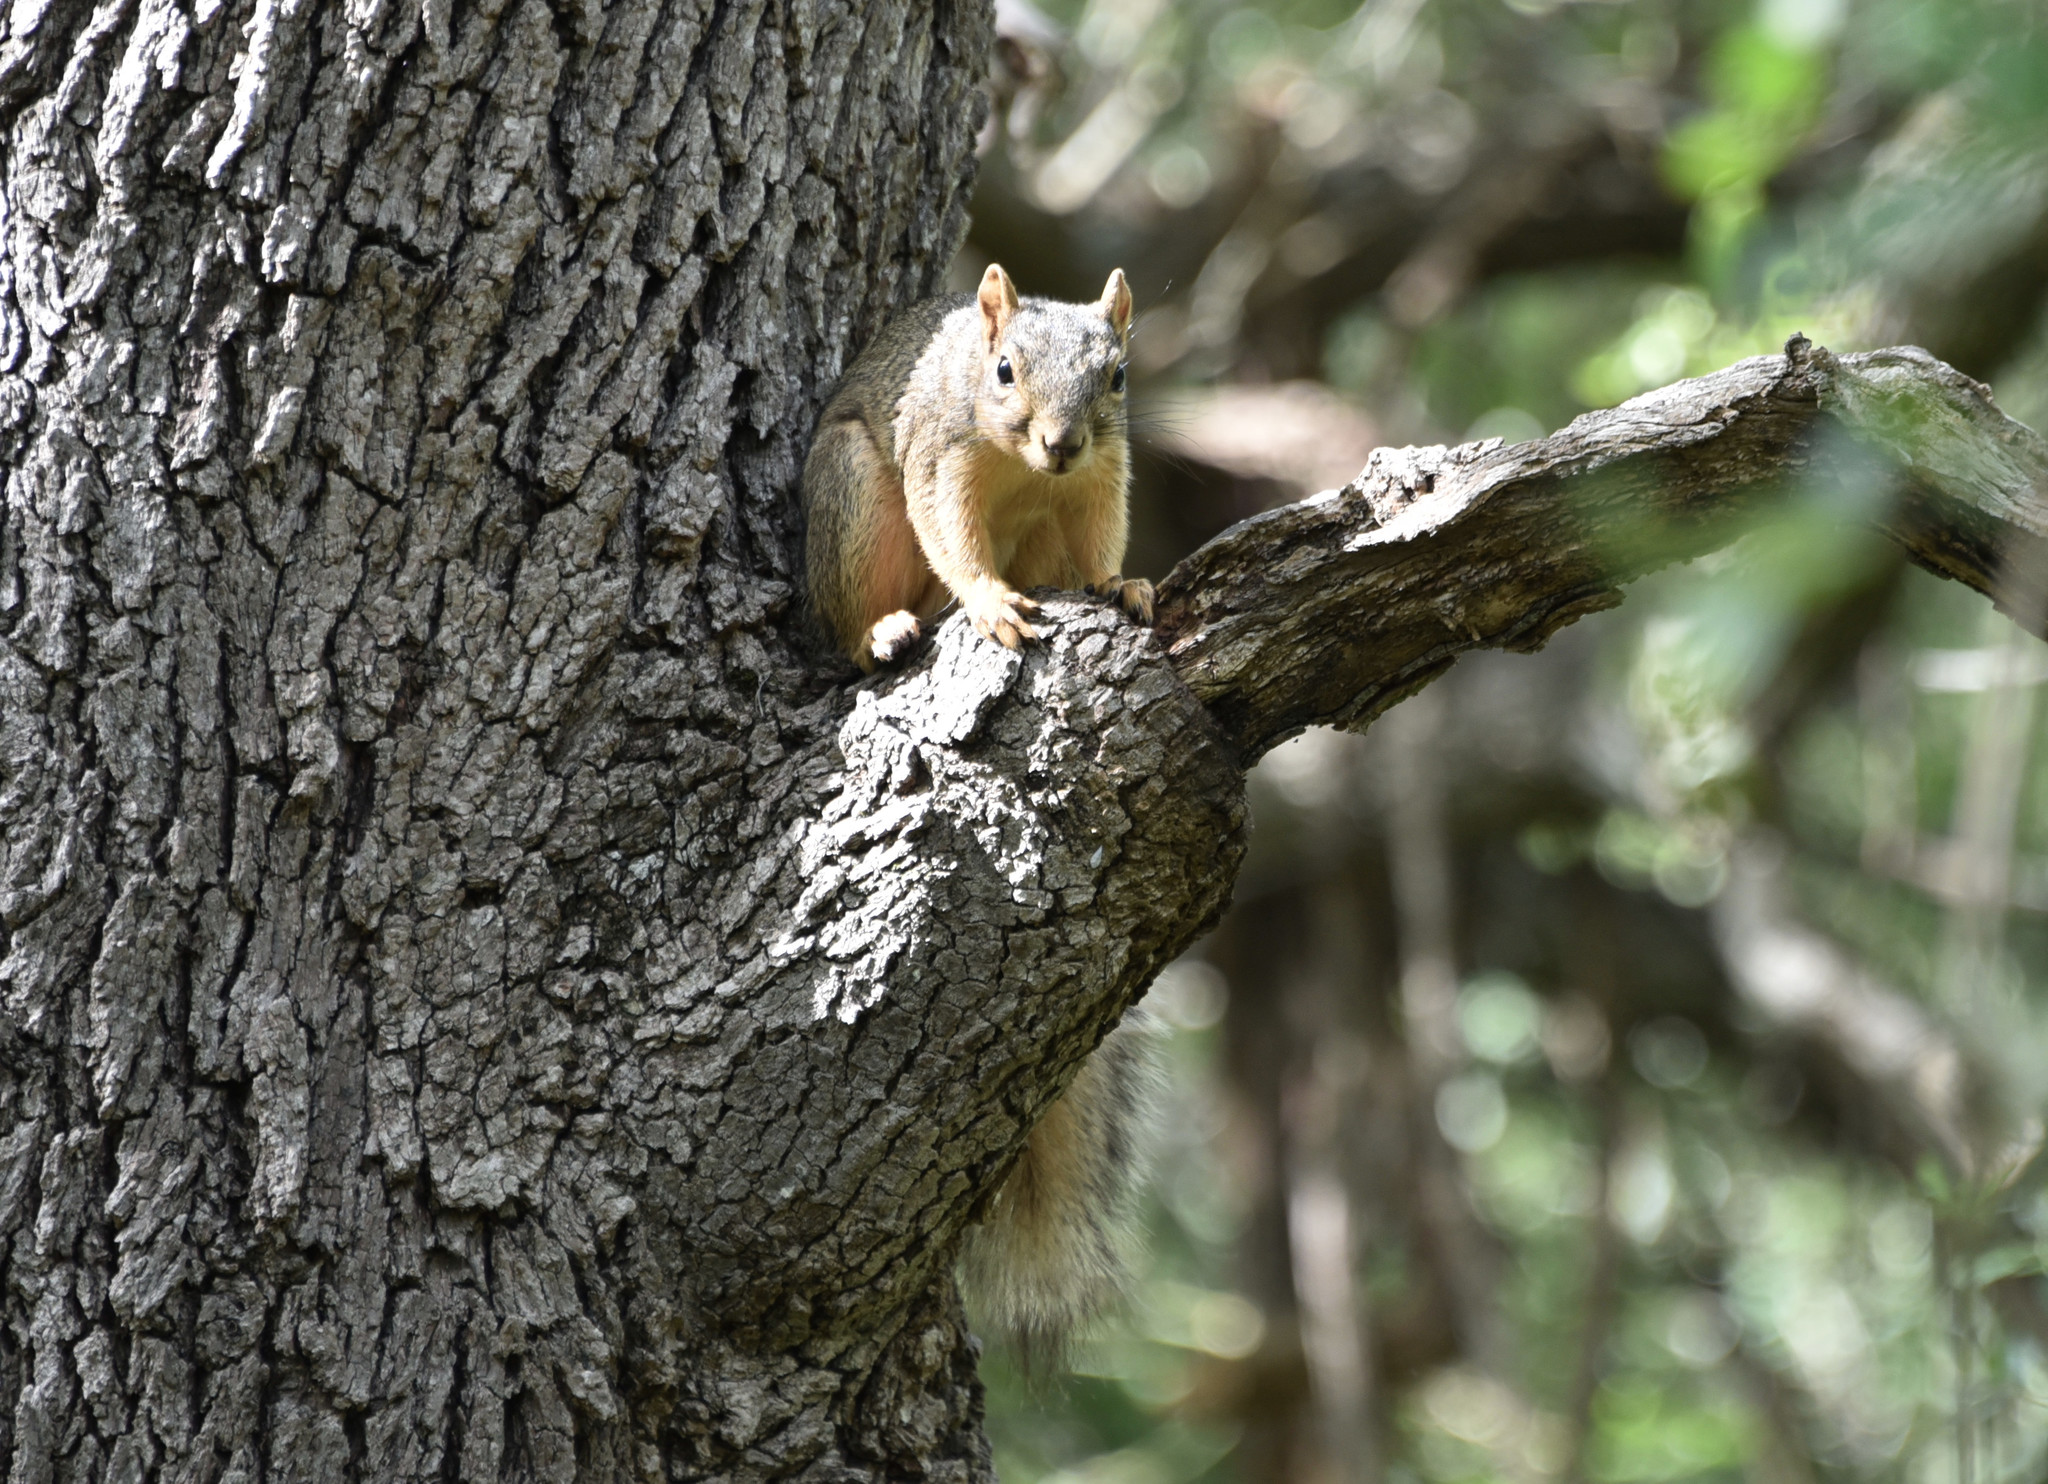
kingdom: Animalia
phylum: Chordata
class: Mammalia
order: Rodentia
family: Sciuridae
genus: Sciurus
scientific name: Sciurus niger
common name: Fox squirrel
